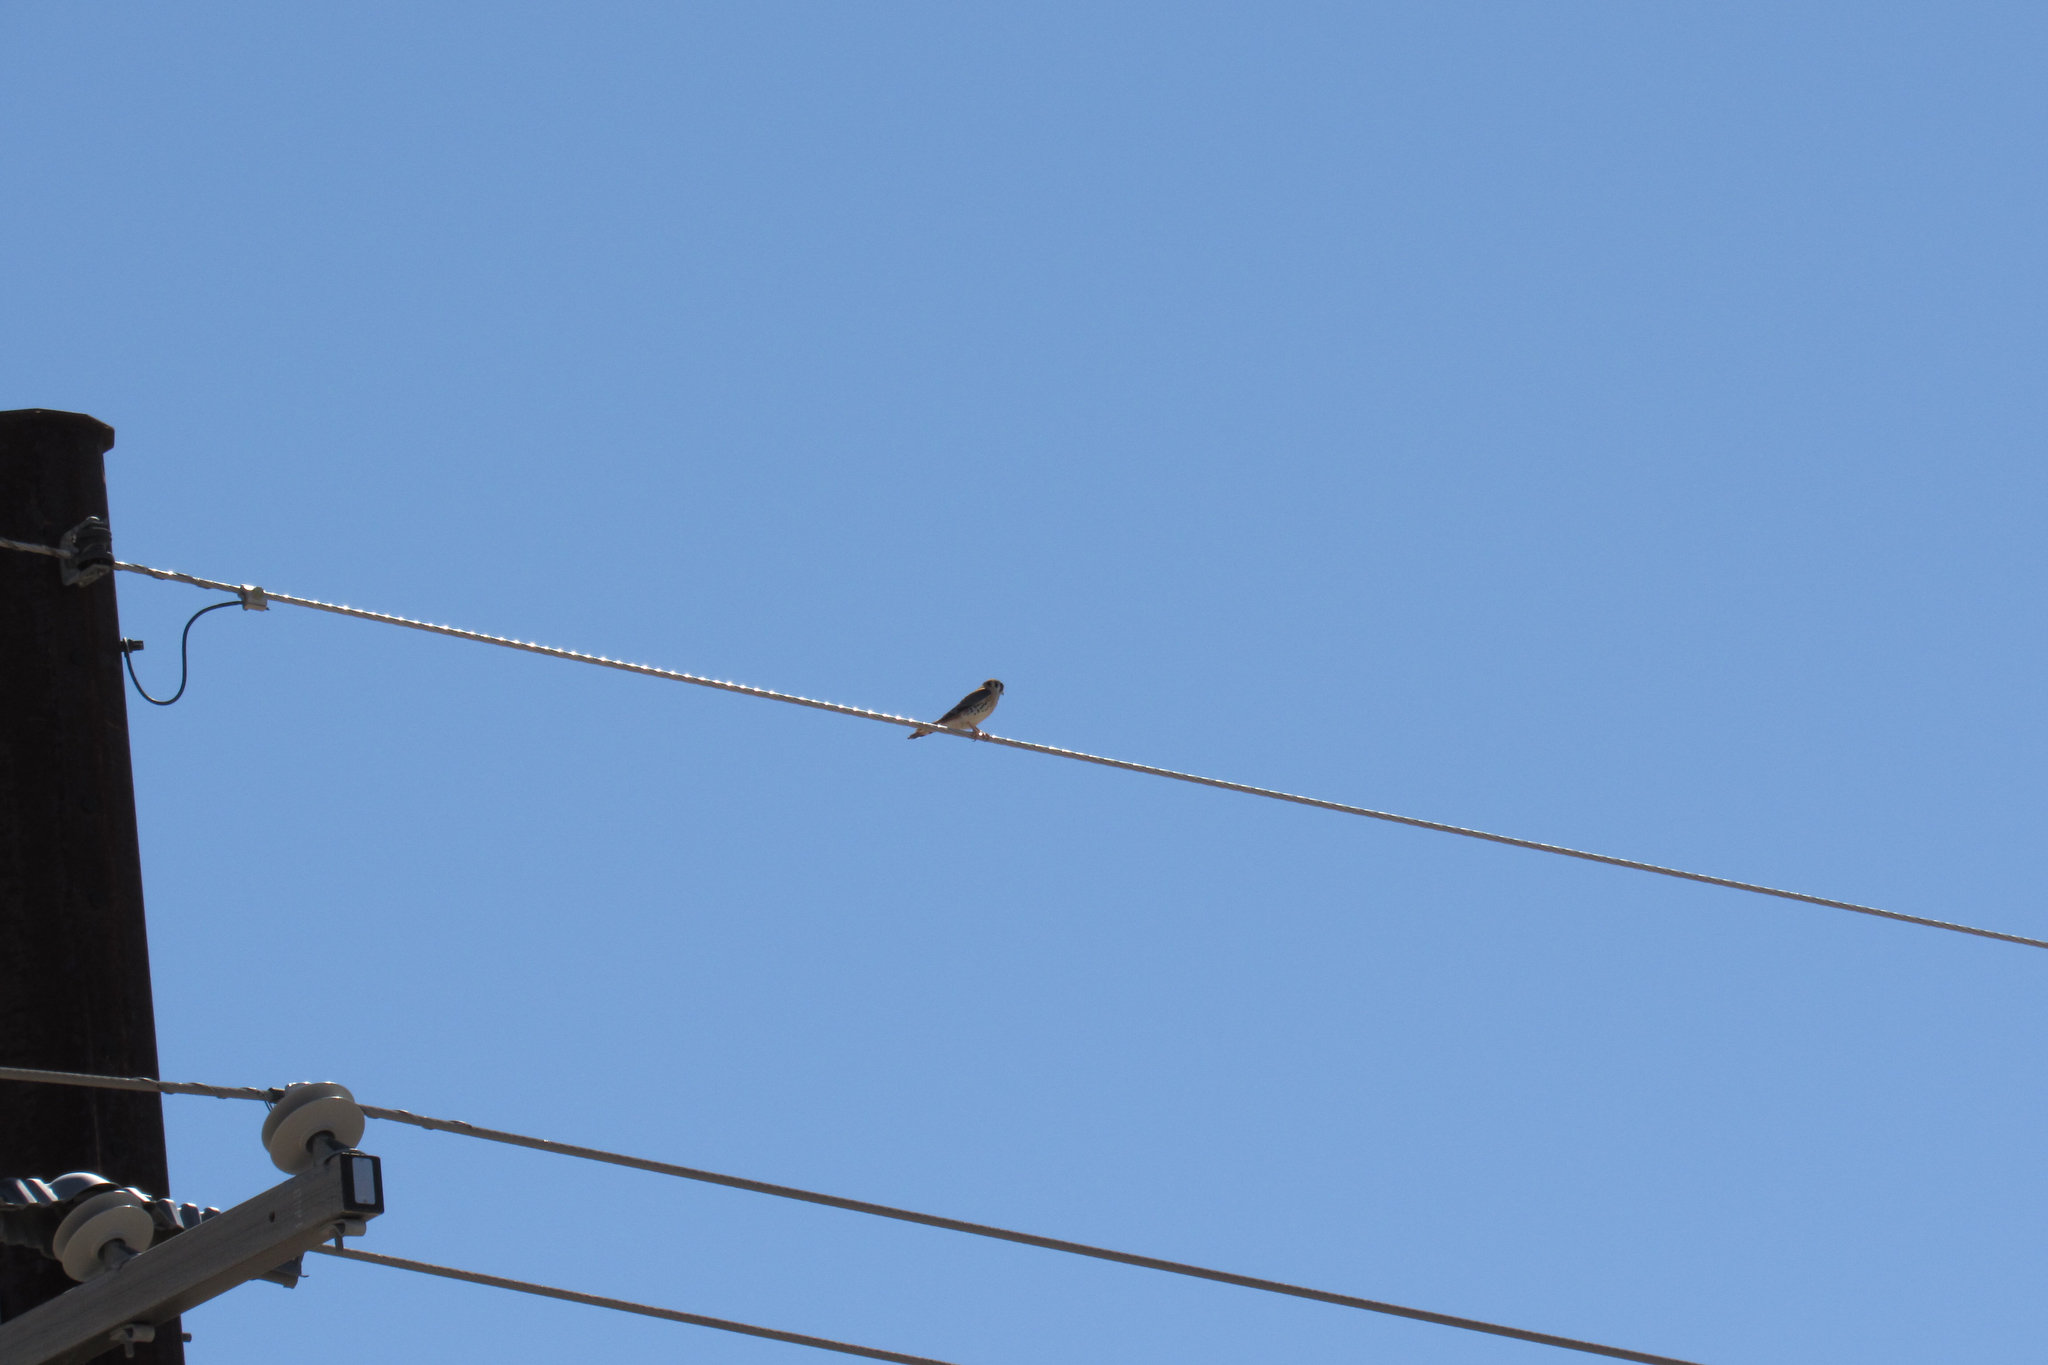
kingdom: Animalia
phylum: Chordata
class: Aves
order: Falconiformes
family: Falconidae
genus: Falco
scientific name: Falco sparverius
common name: American kestrel
